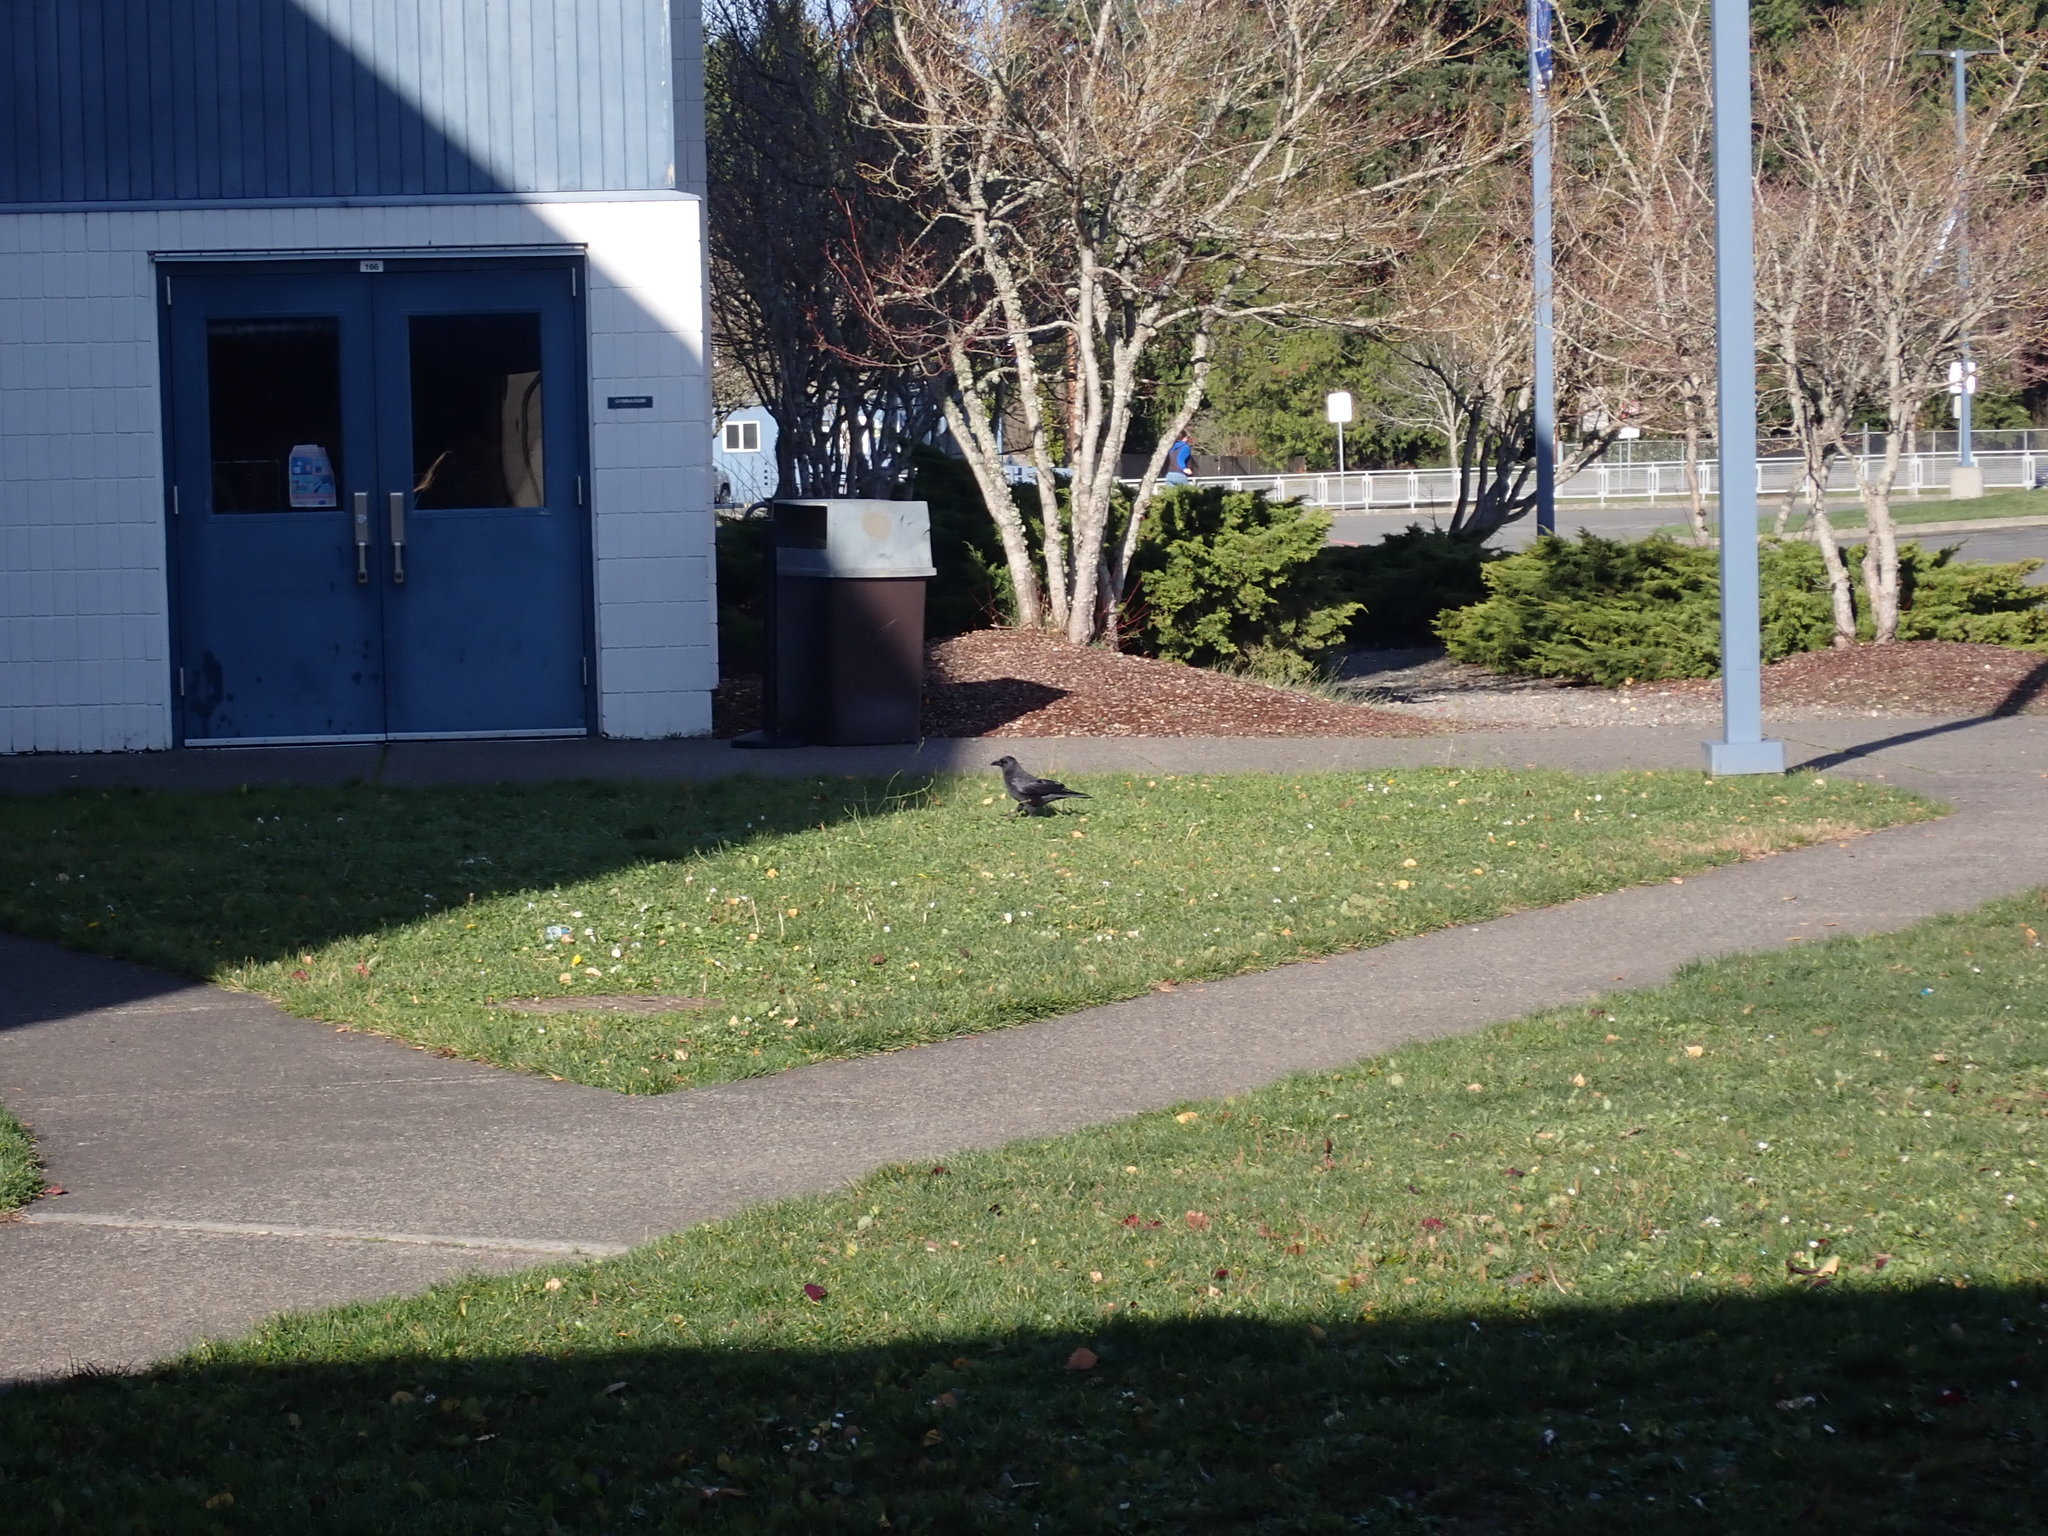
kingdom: Animalia
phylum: Chordata
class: Aves
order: Passeriformes
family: Corvidae
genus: Corvus
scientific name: Corvus brachyrhynchos
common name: American crow
